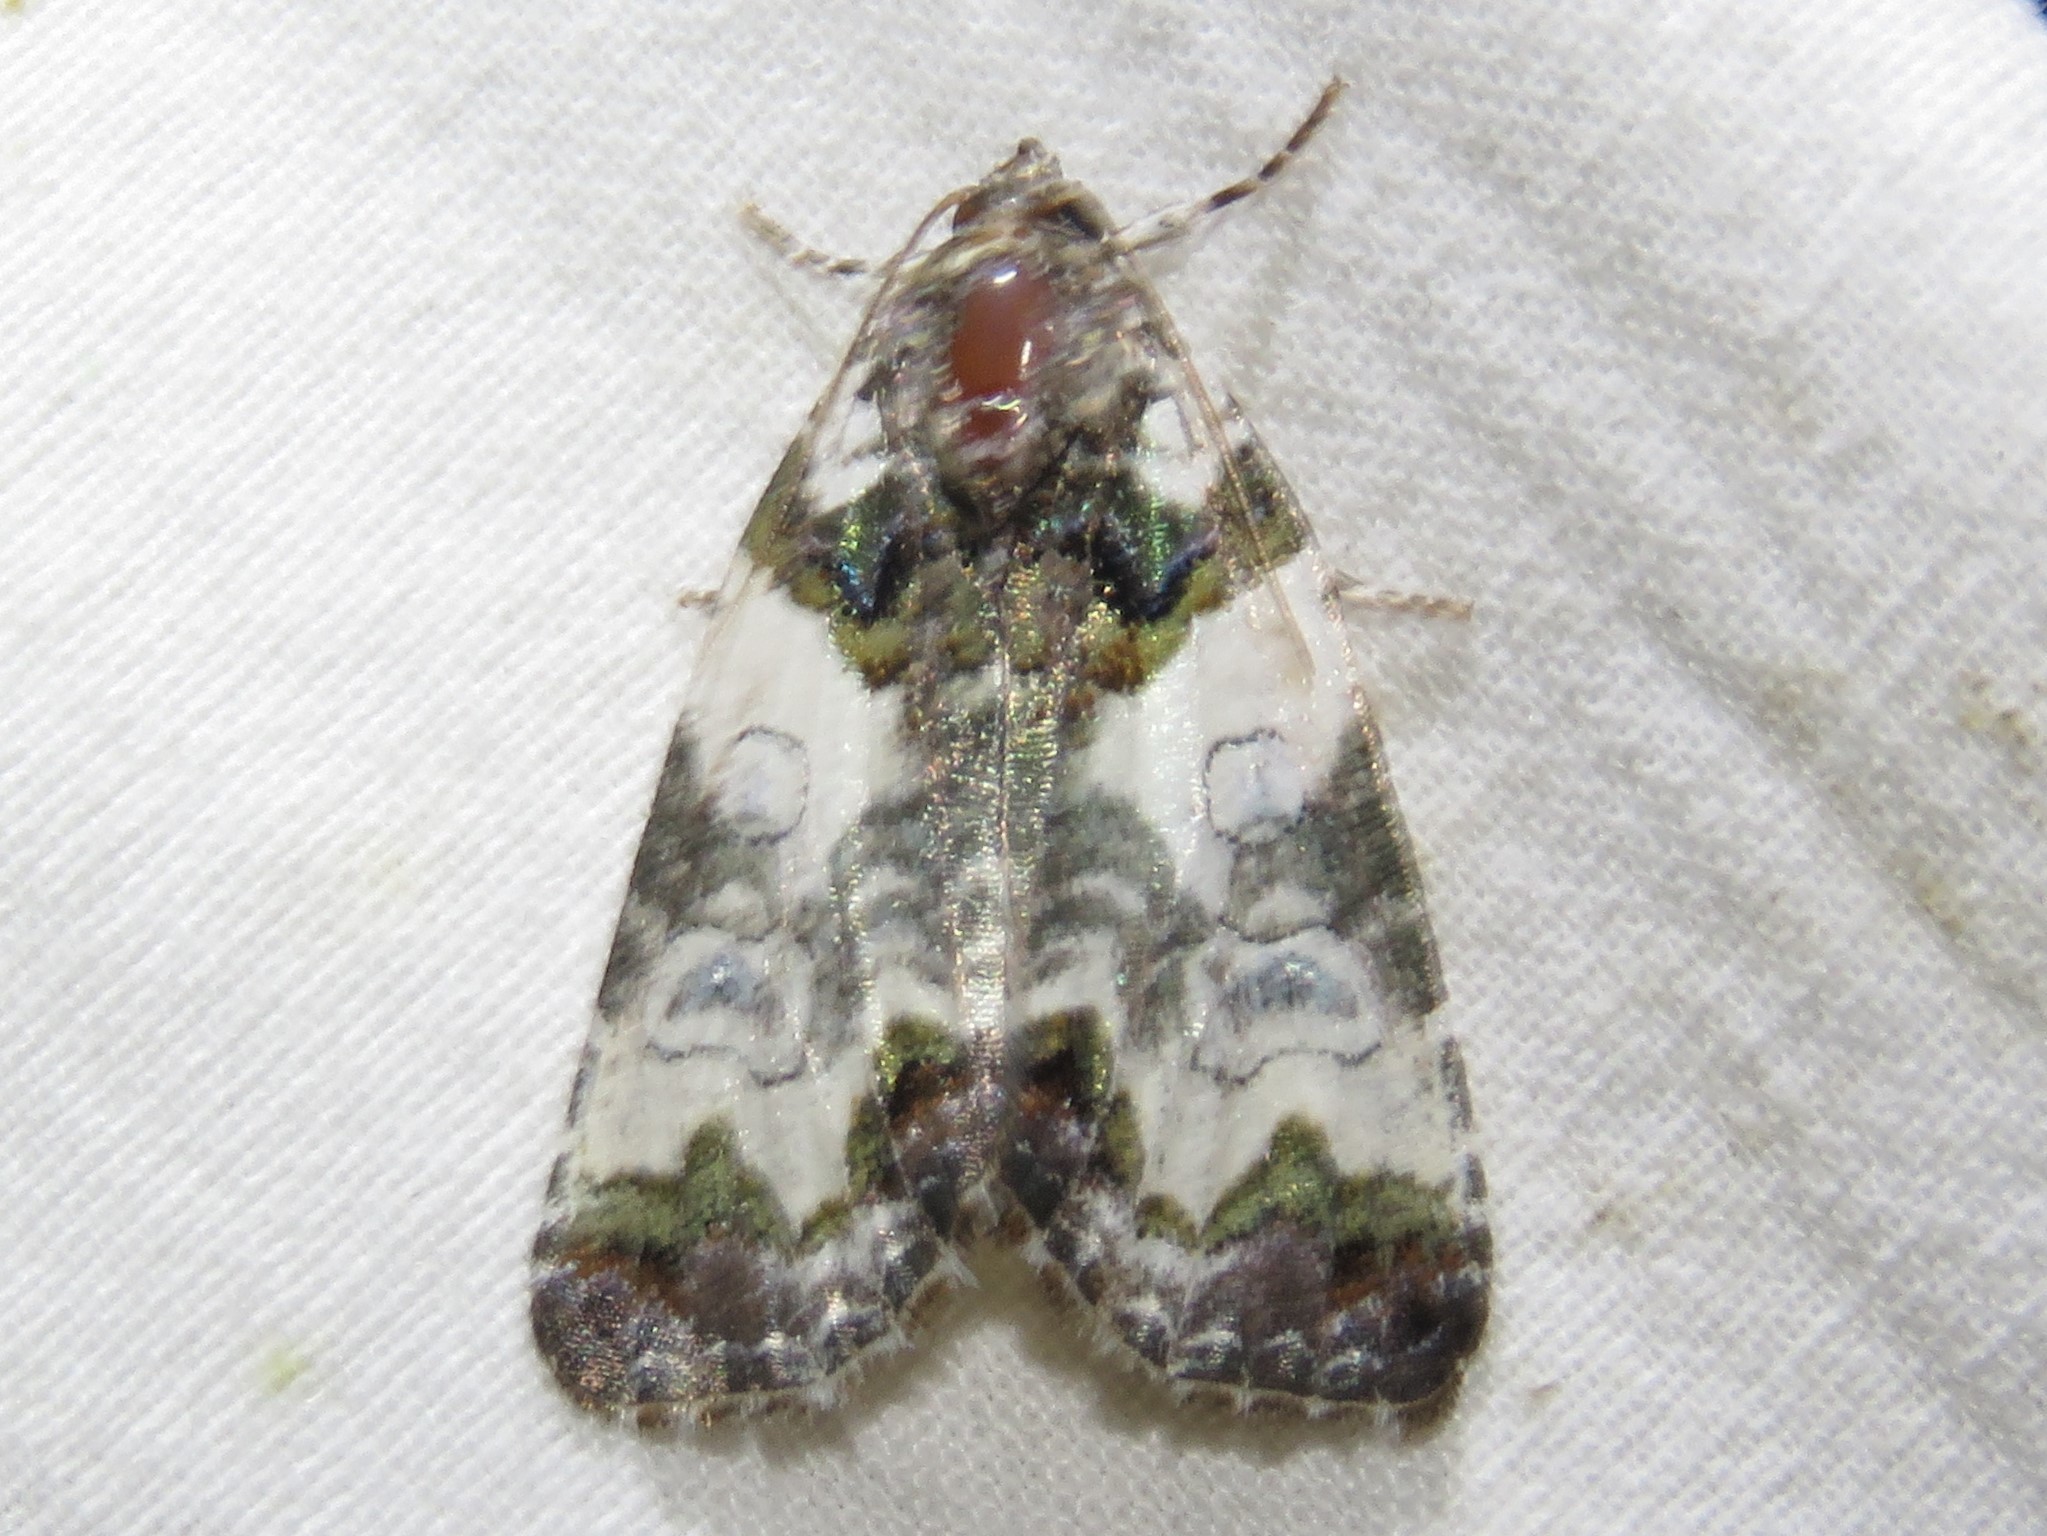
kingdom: Animalia
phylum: Arthropoda
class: Insecta
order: Lepidoptera
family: Noctuidae
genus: Cerma
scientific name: Cerma cerintha
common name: Tufted bird-dropping moth
